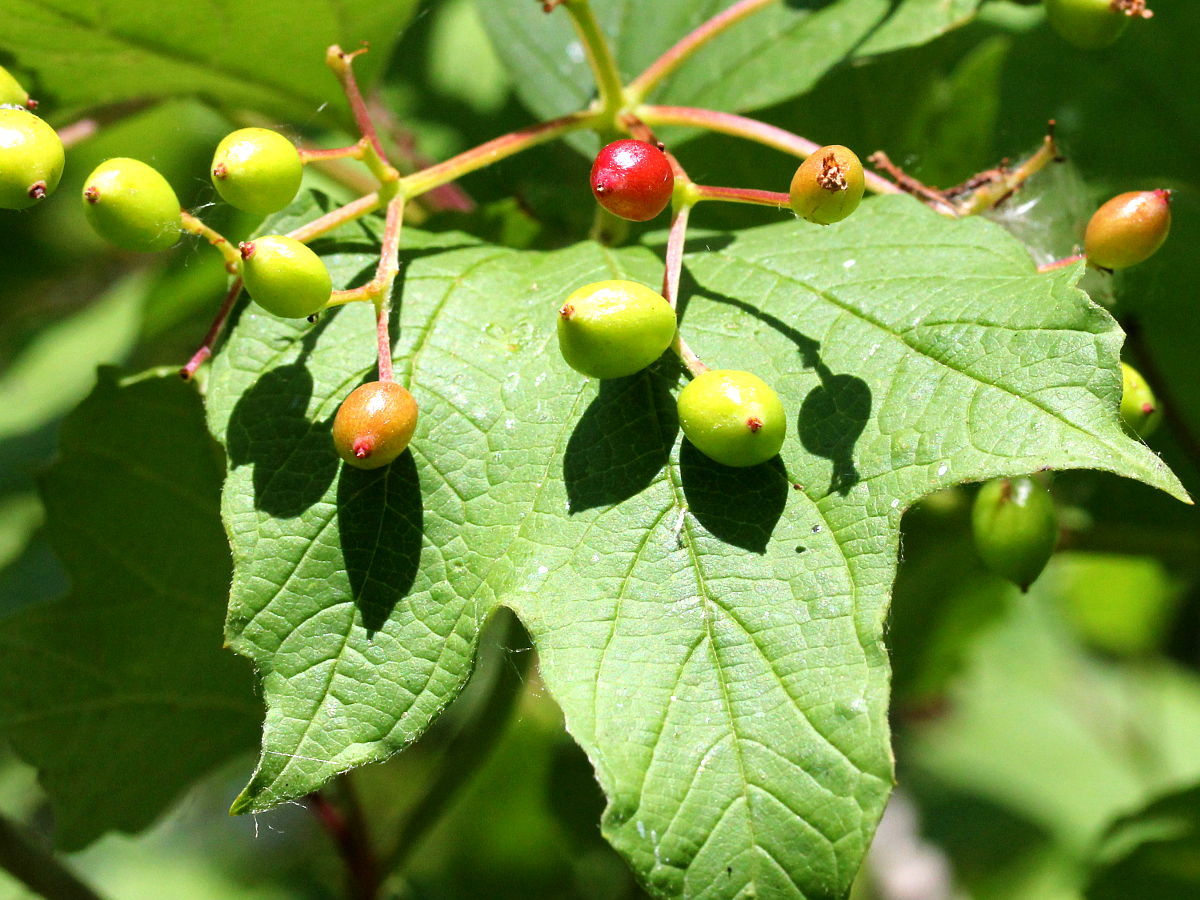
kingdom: Plantae
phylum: Tracheophyta
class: Magnoliopsida
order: Dipsacales
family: Viburnaceae
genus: Viburnum
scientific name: Viburnum opulus
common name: Guelder-rose
